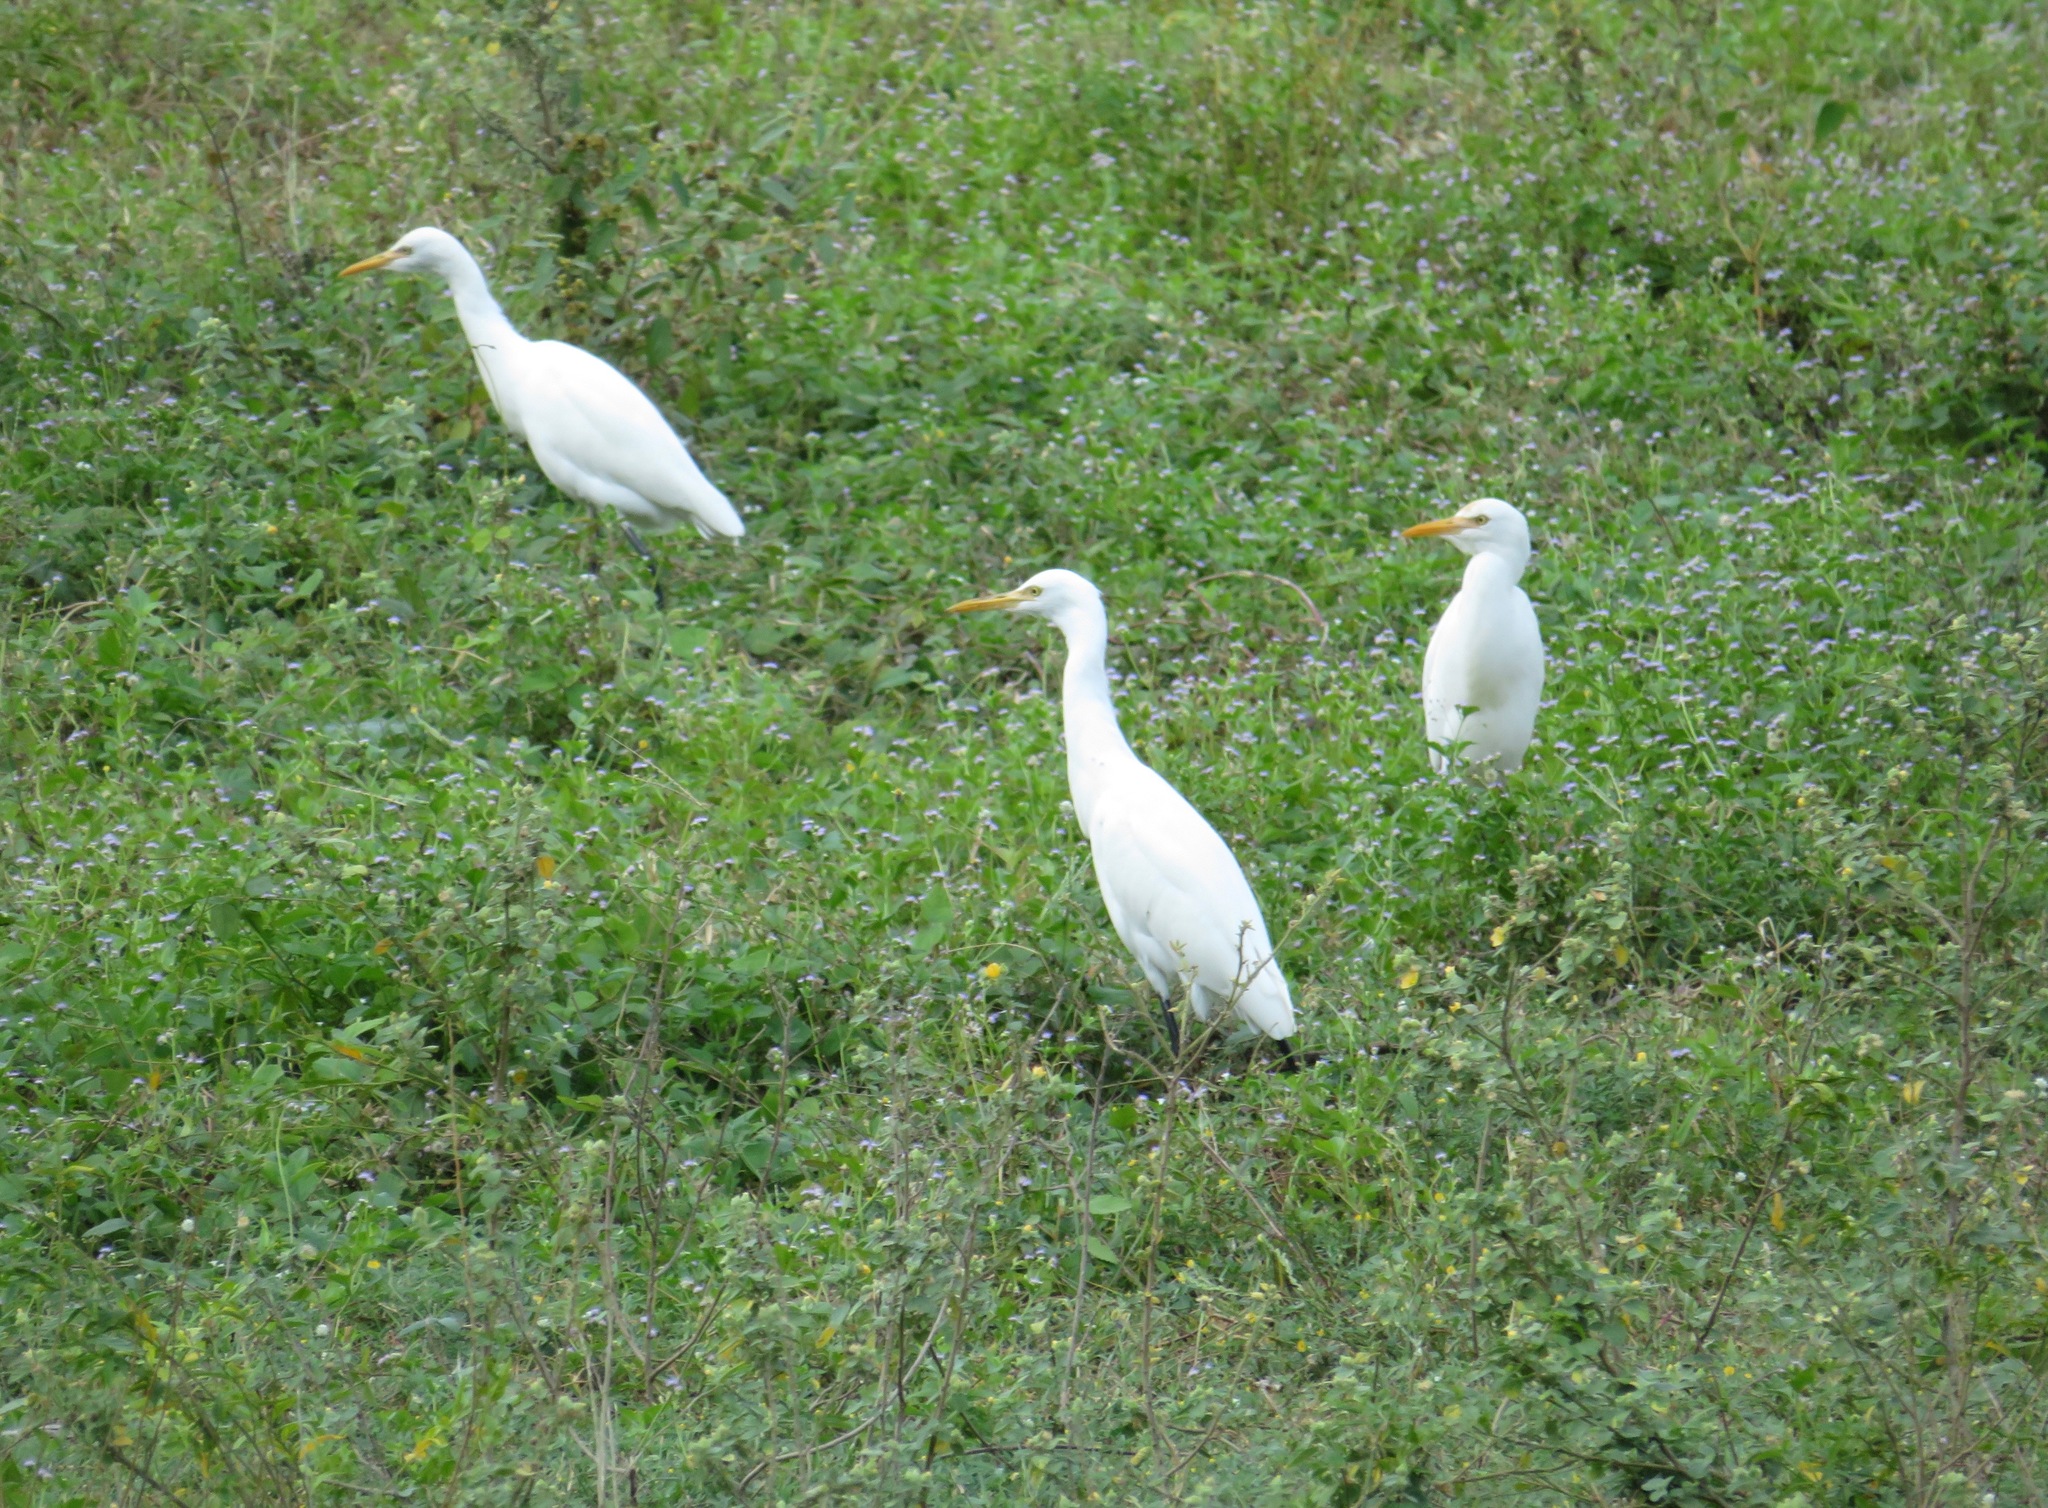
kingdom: Animalia
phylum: Chordata
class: Aves
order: Pelecaniformes
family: Ardeidae
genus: Bubulcus
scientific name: Bubulcus coromandus
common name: Eastern cattle egret
